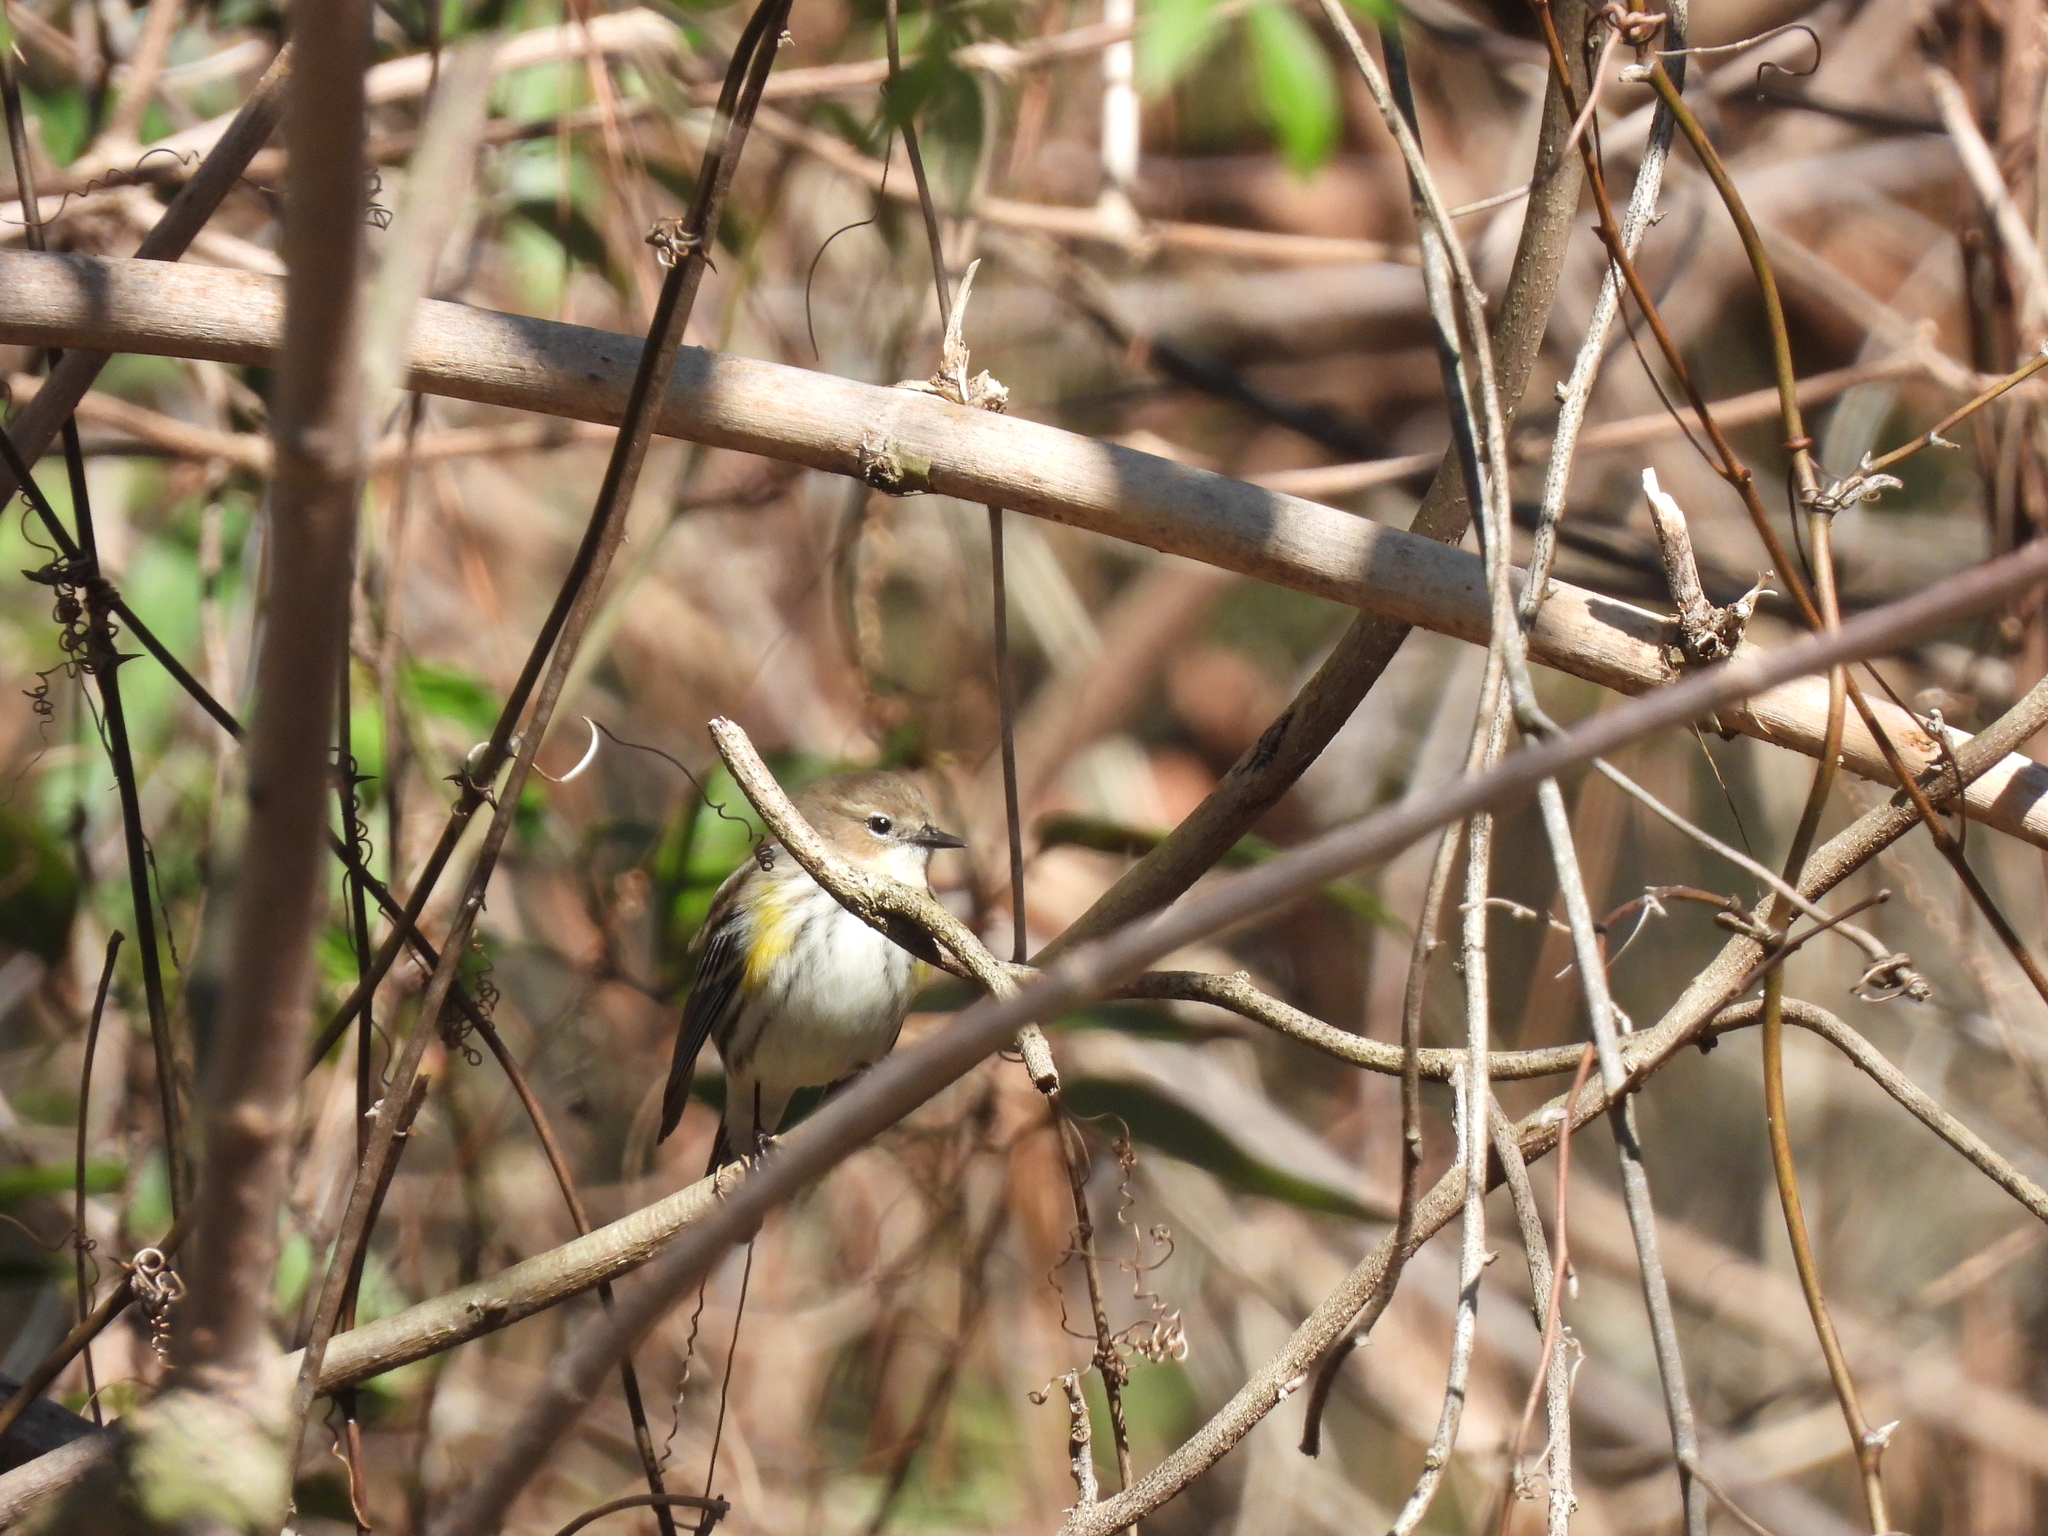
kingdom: Animalia
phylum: Chordata
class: Aves
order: Passeriformes
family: Parulidae
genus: Setophaga
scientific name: Setophaga coronata
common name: Myrtle warbler
